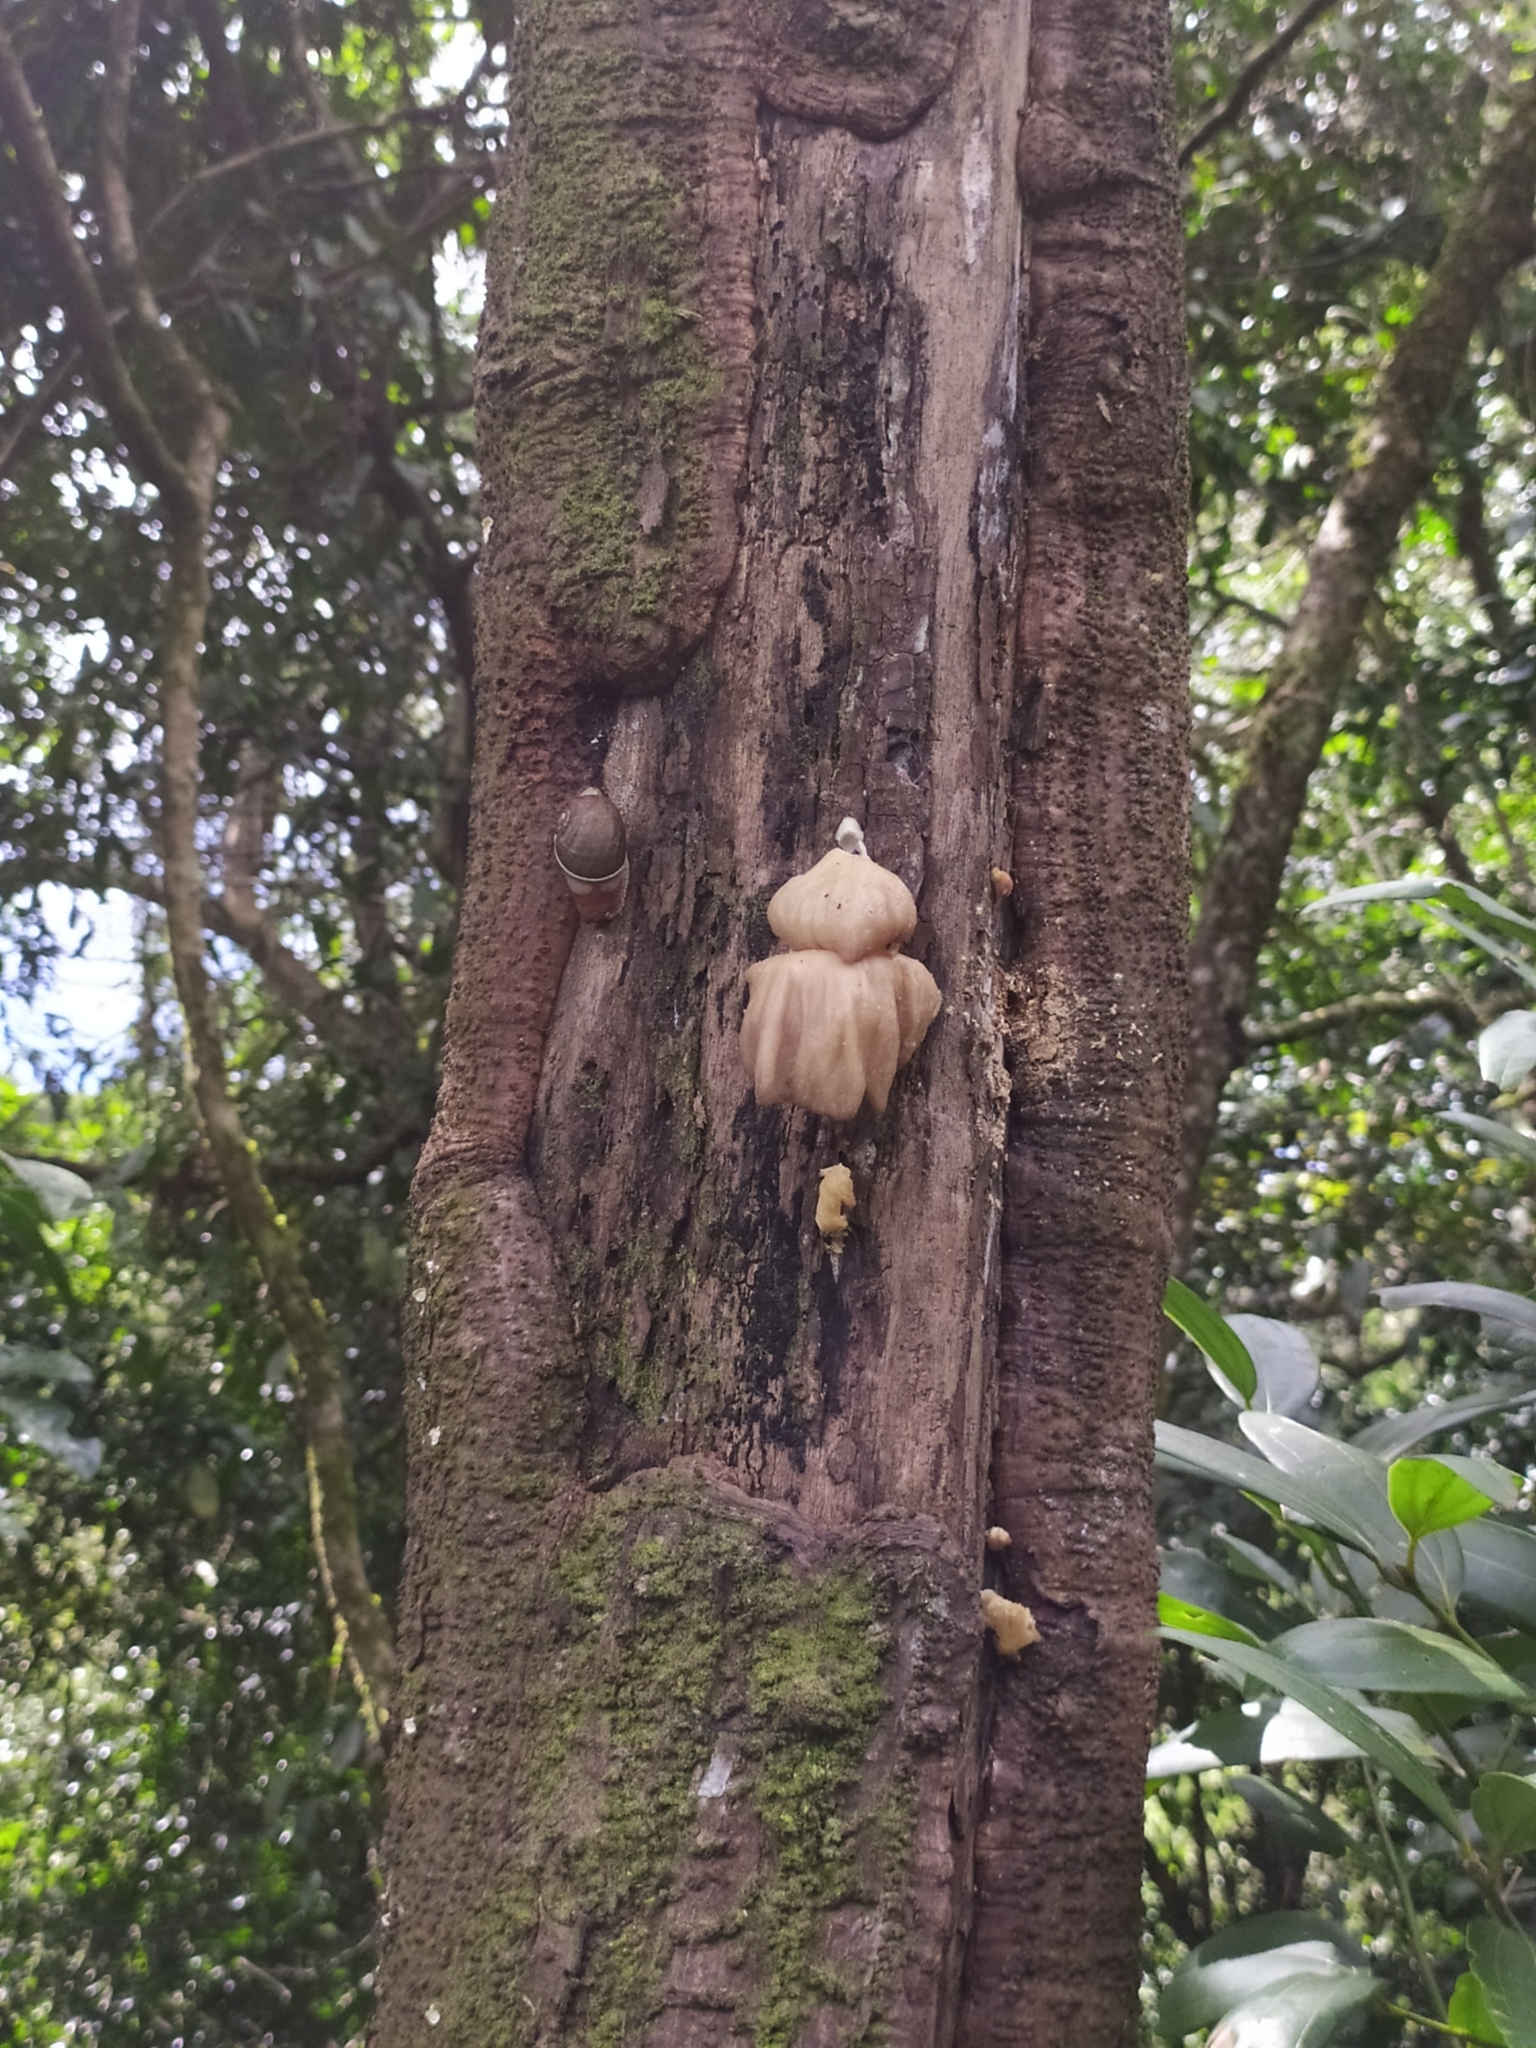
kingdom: Animalia
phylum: Mollusca
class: Gastropoda
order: Stylommatophora
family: Ariophantidae
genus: Indrella
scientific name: Indrella ampulla
